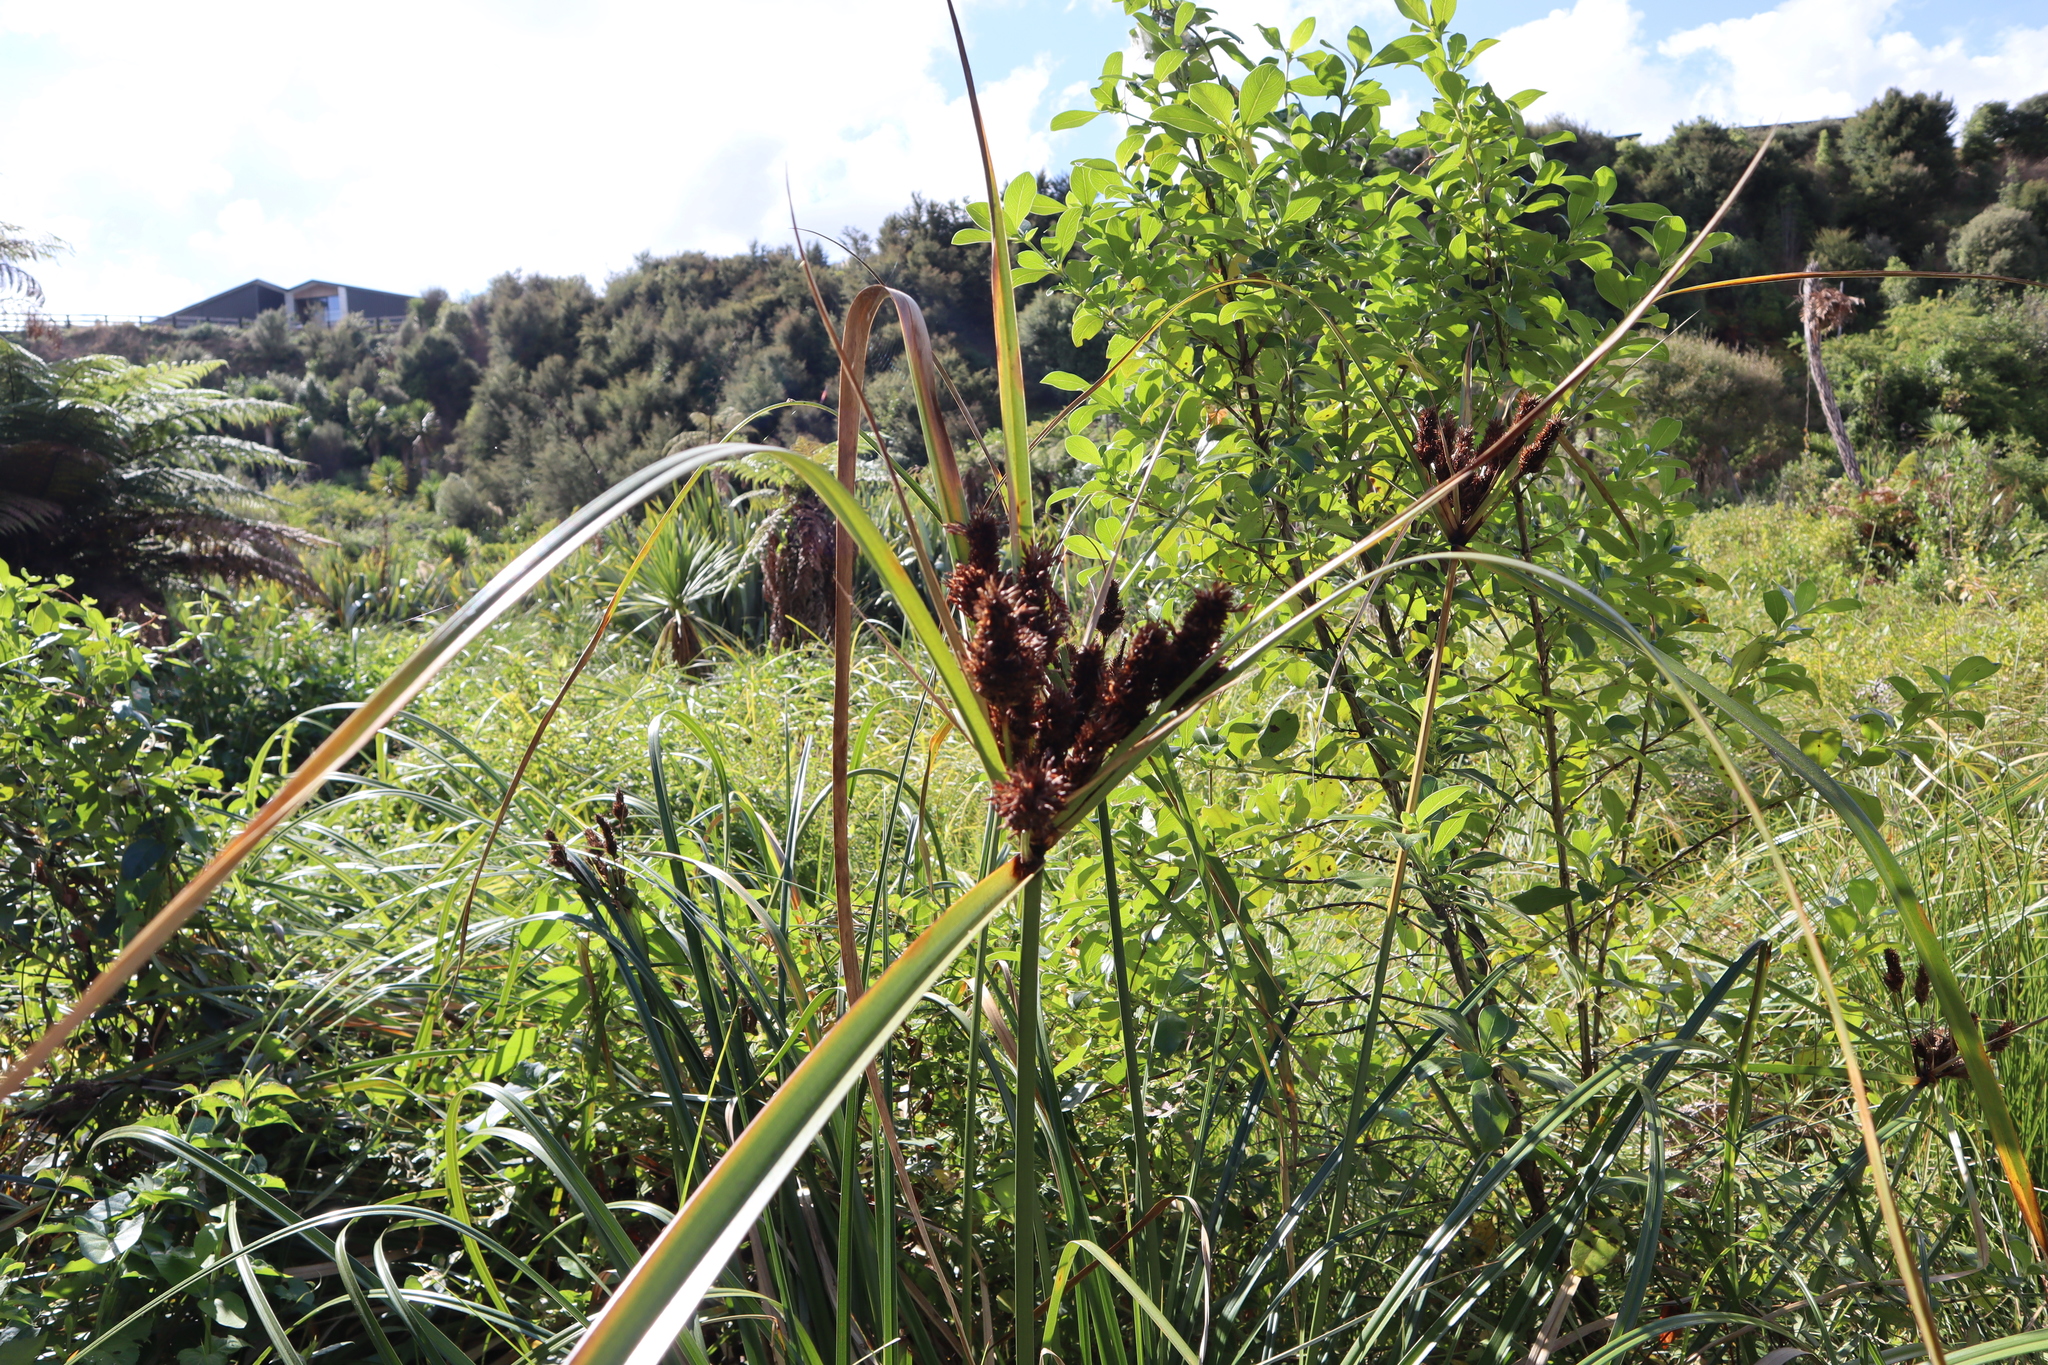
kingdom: Plantae
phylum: Tracheophyta
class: Liliopsida
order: Poales
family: Cyperaceae
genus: Cyperus
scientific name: Cyperus ustulatus
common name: Giant umbrella-sedge
